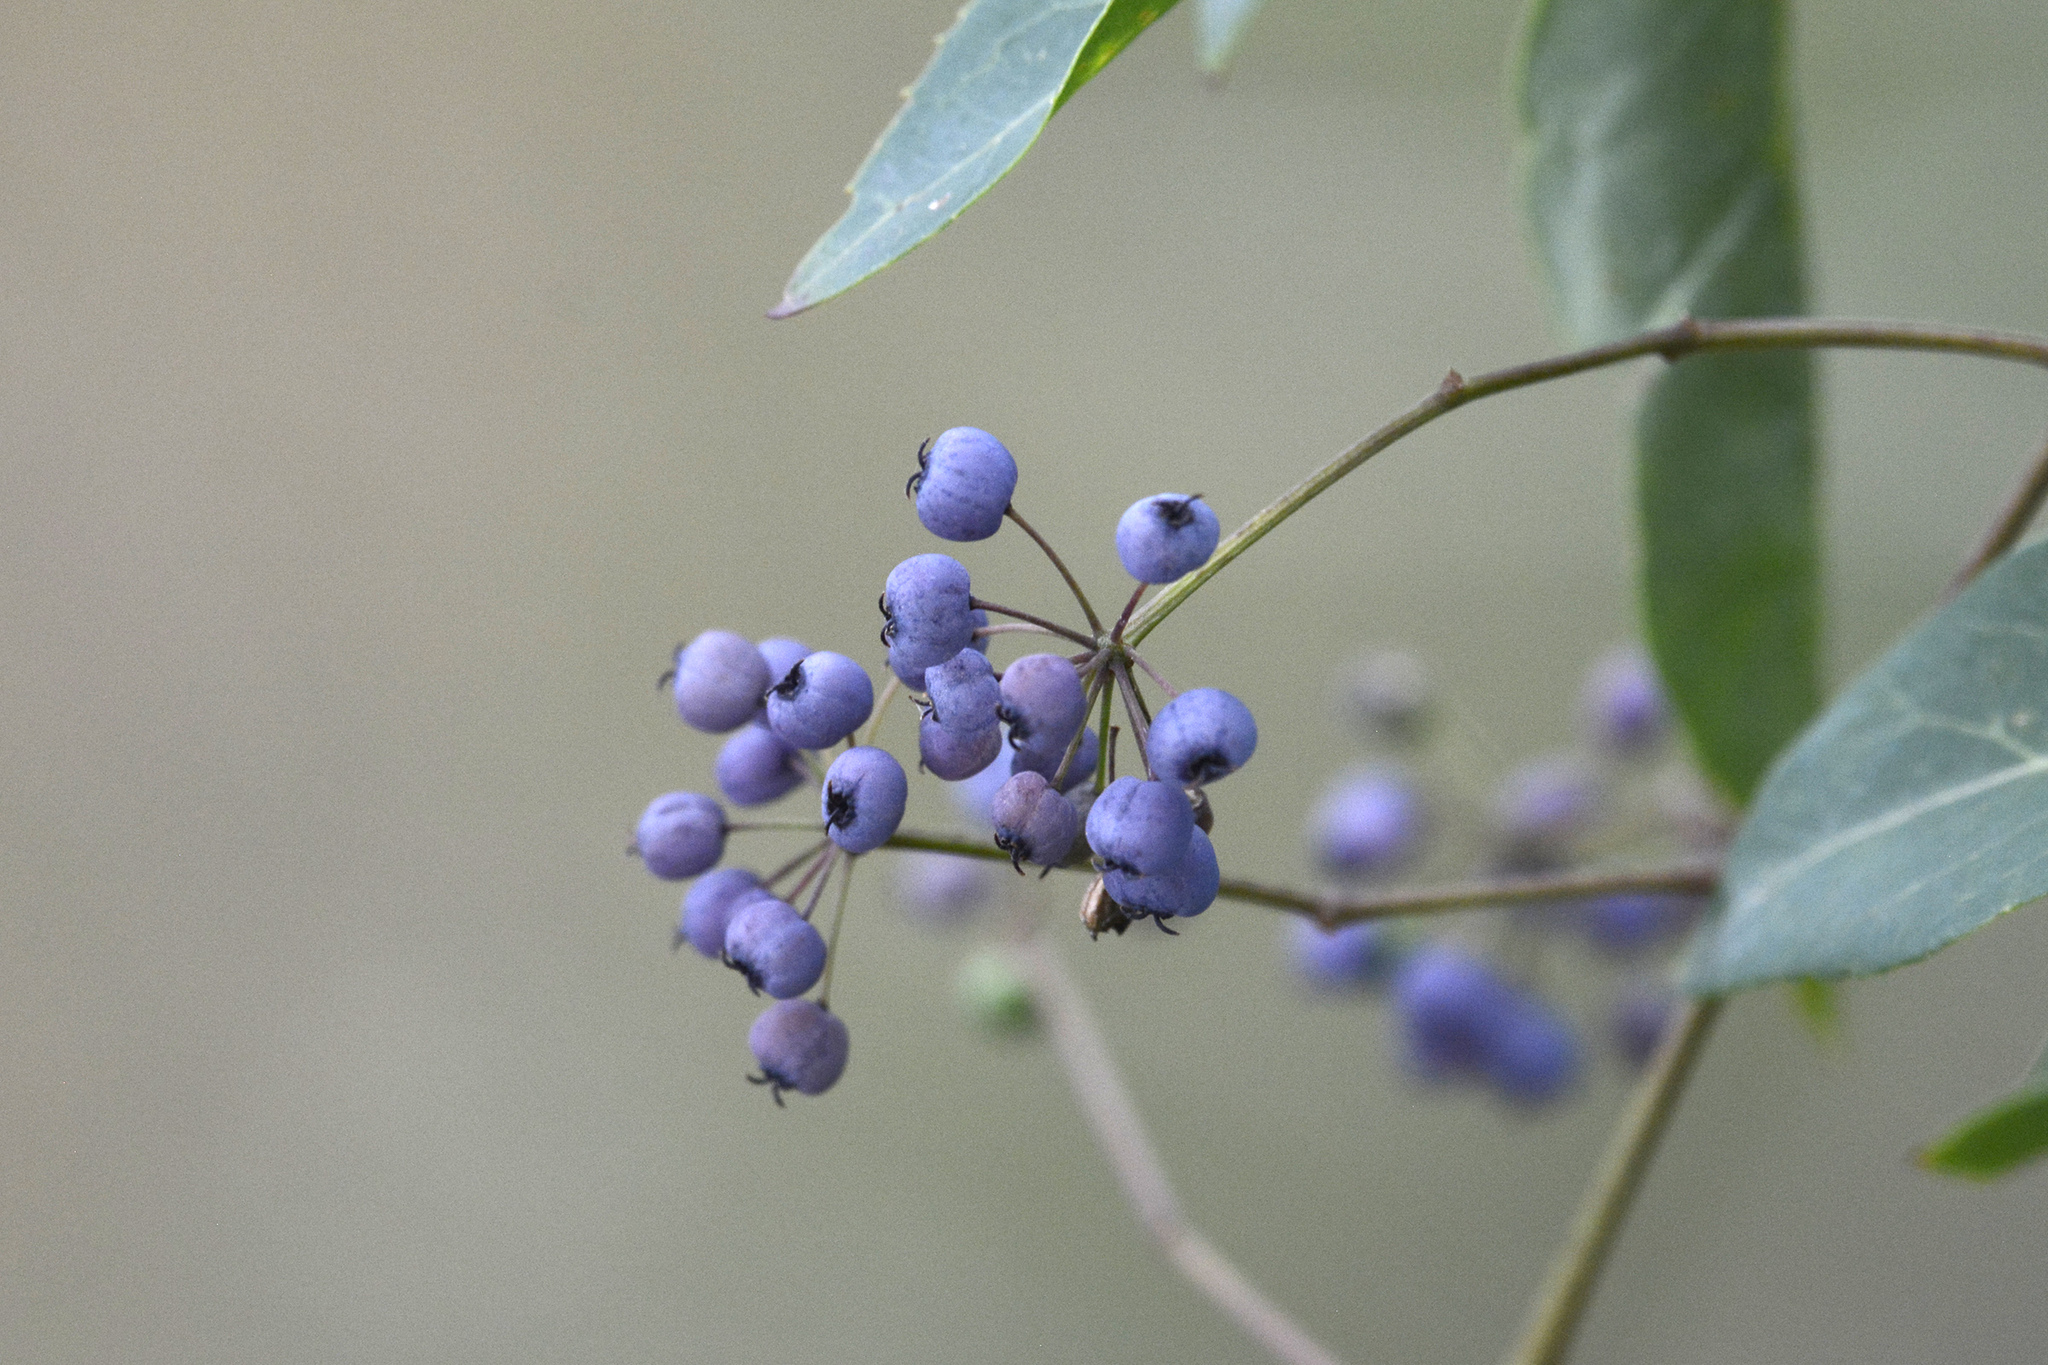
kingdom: Plantae
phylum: Tracheophyta
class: Magnoliopsida
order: Apiales
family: Araliaceae
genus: Polyscias
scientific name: Polyscias sambucifolia
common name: Elderberry-ash
